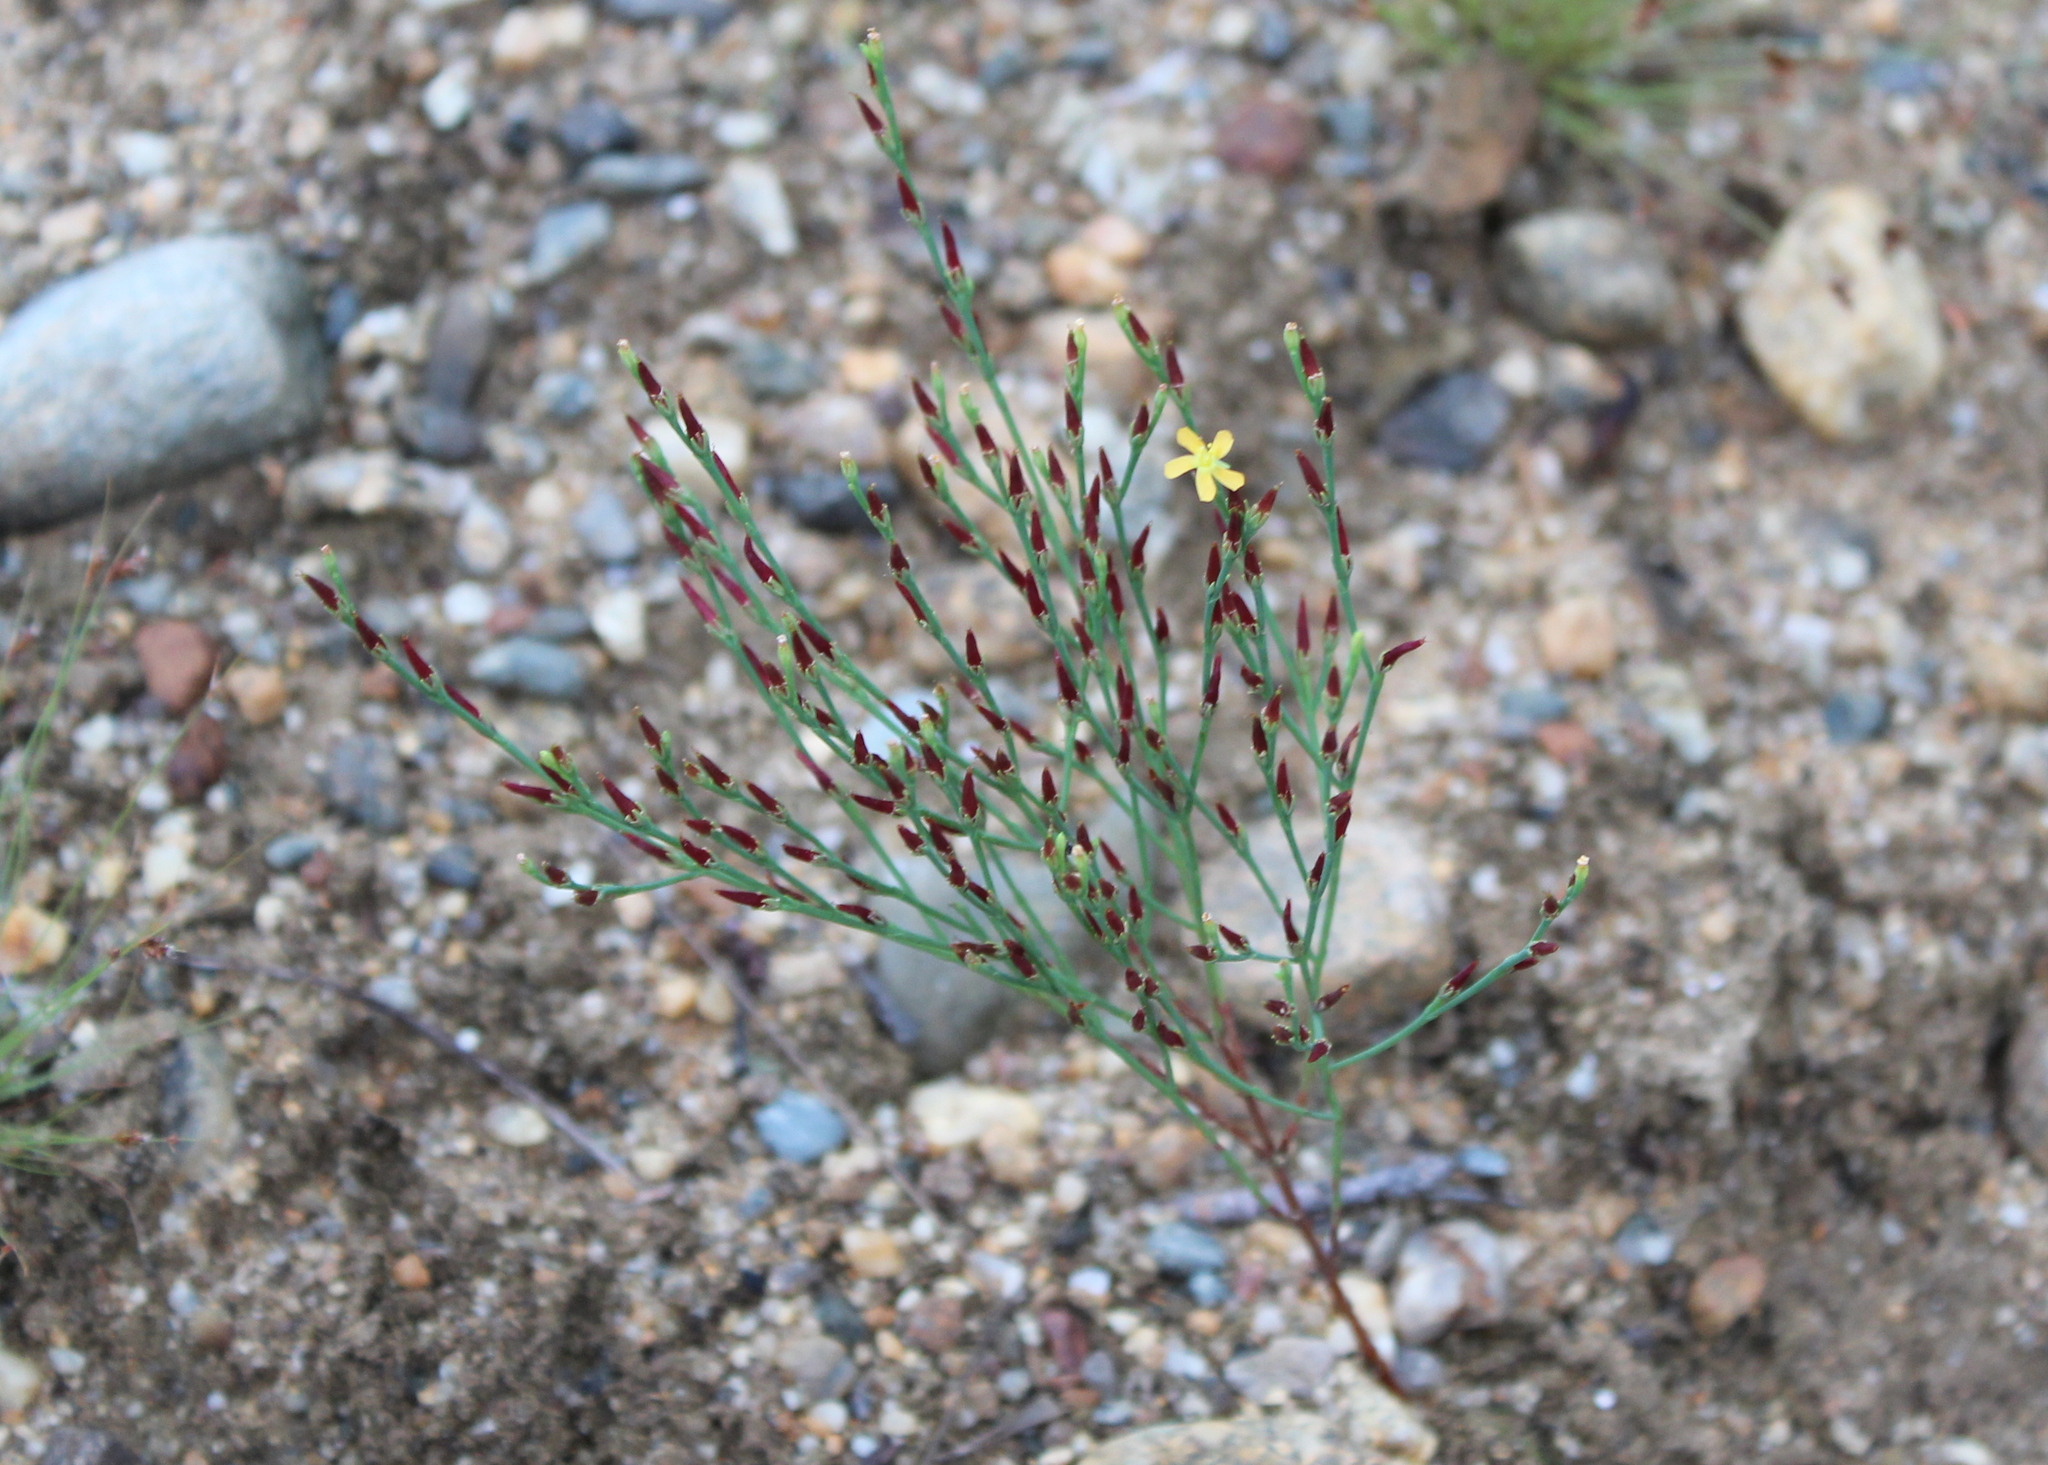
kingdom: Plantae
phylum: Tracheophyta
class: Magnoliopsida
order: Malpighiales
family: Hypericaceae
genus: Hypericum
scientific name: Hypericum gentianoides
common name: Gentian-leaved st. john's-wort
